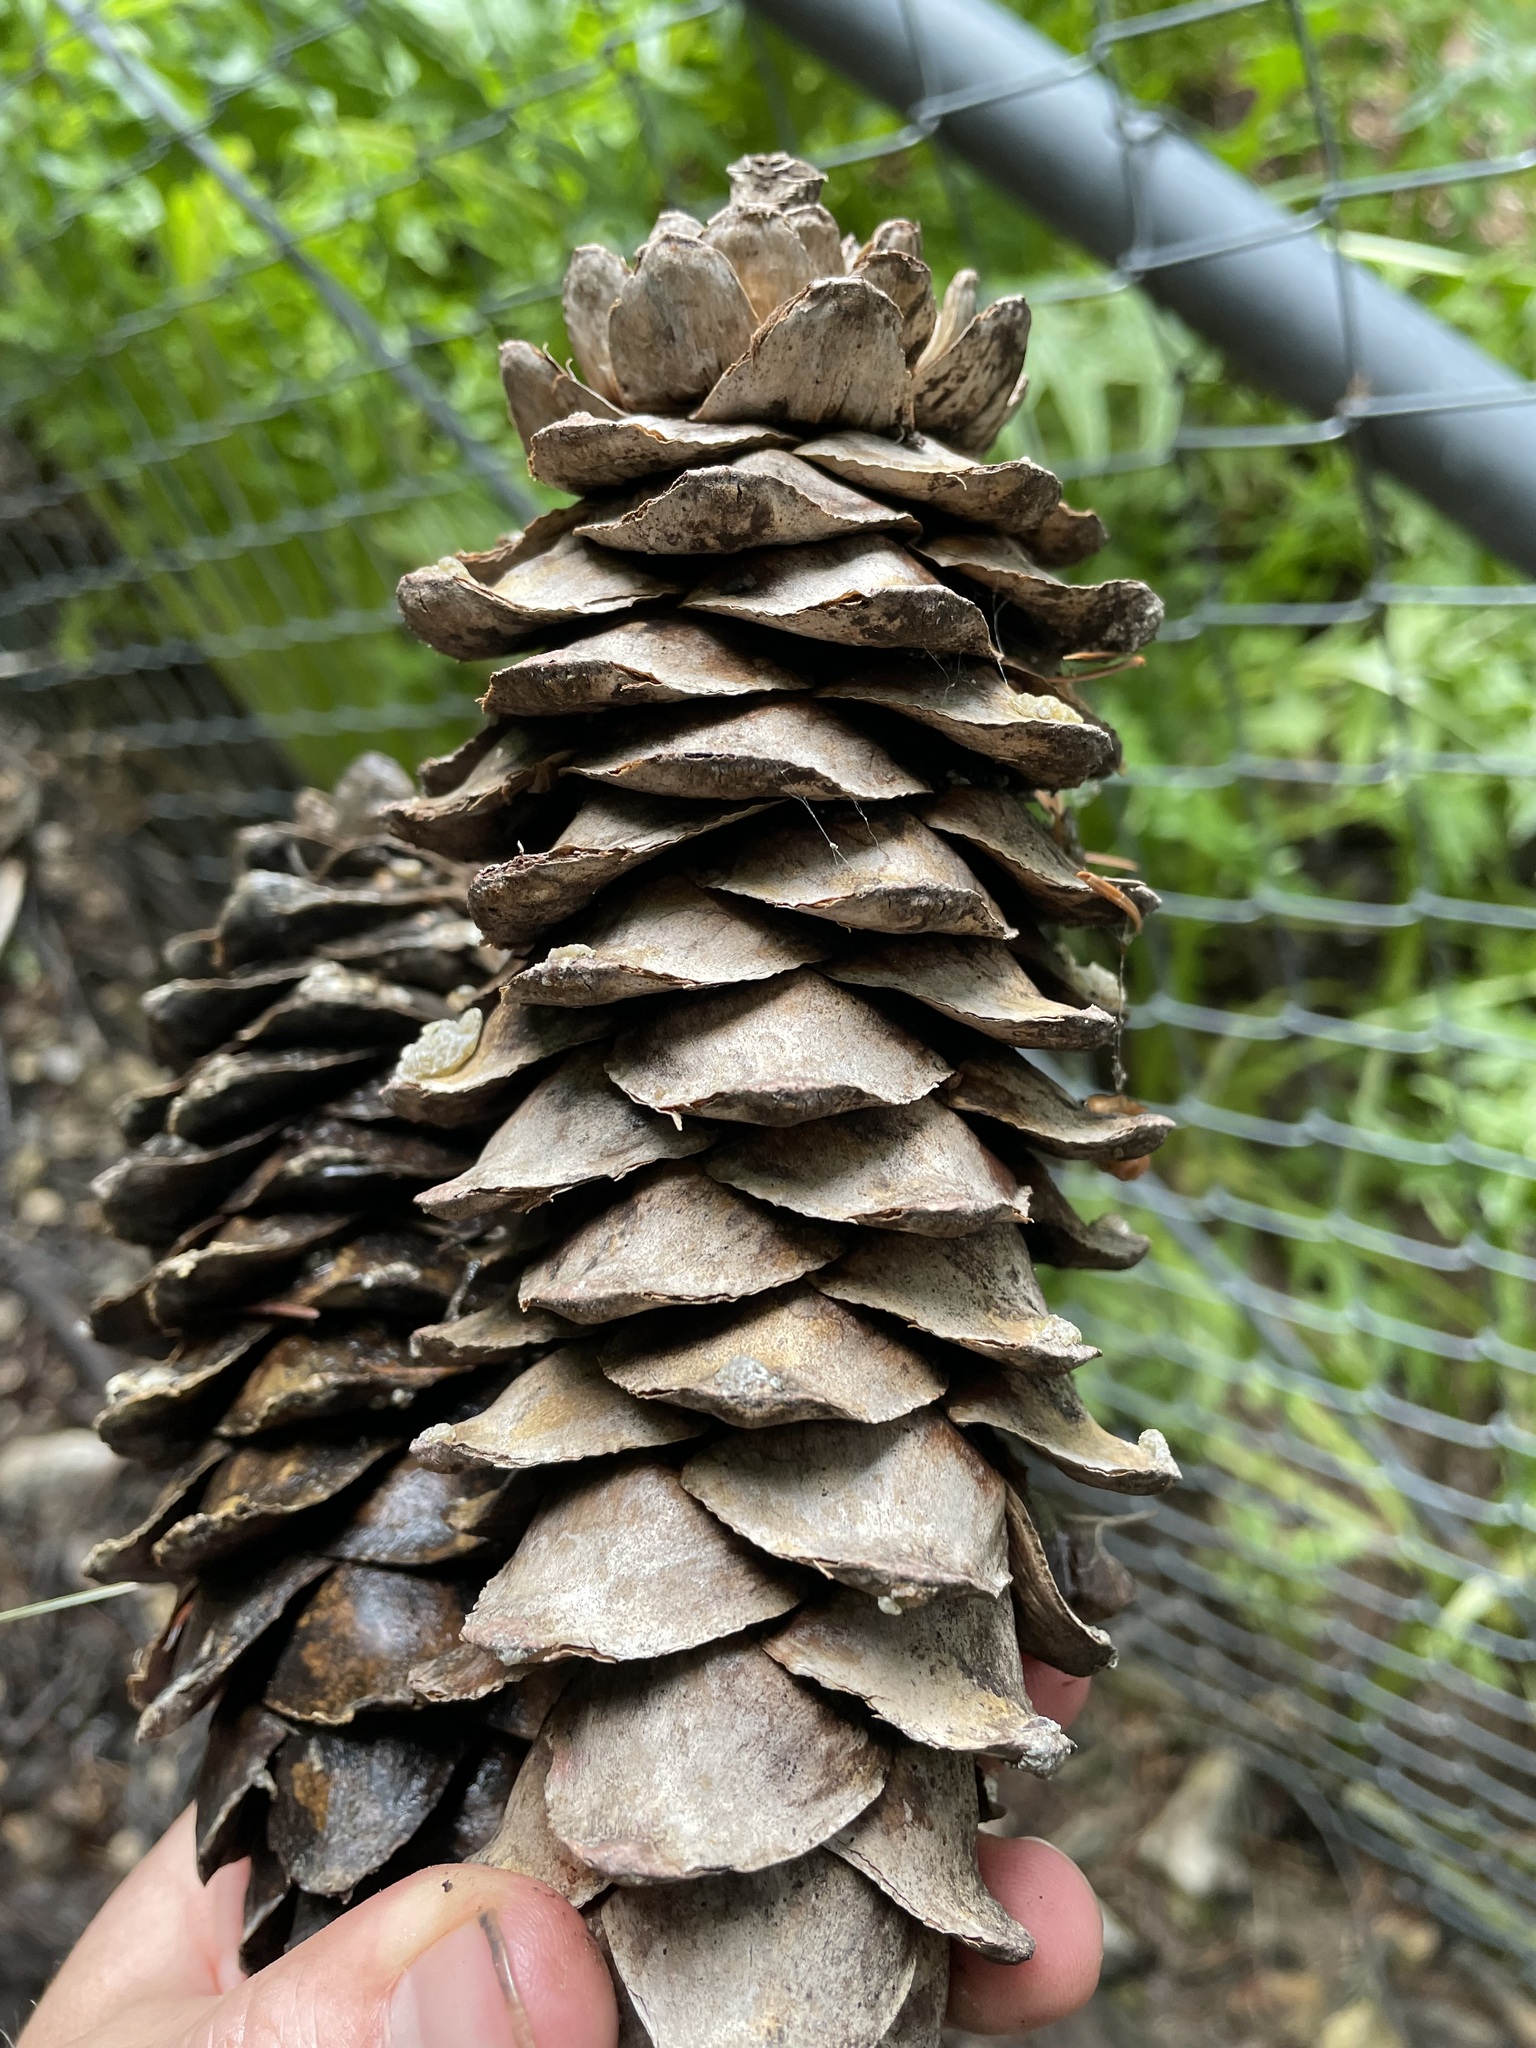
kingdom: Plantae
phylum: Tracheophyta
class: Pinopsida
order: Pinales
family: Pinaceae
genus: Pinus
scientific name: Pinus strobiformis
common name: Southwestern white pine
